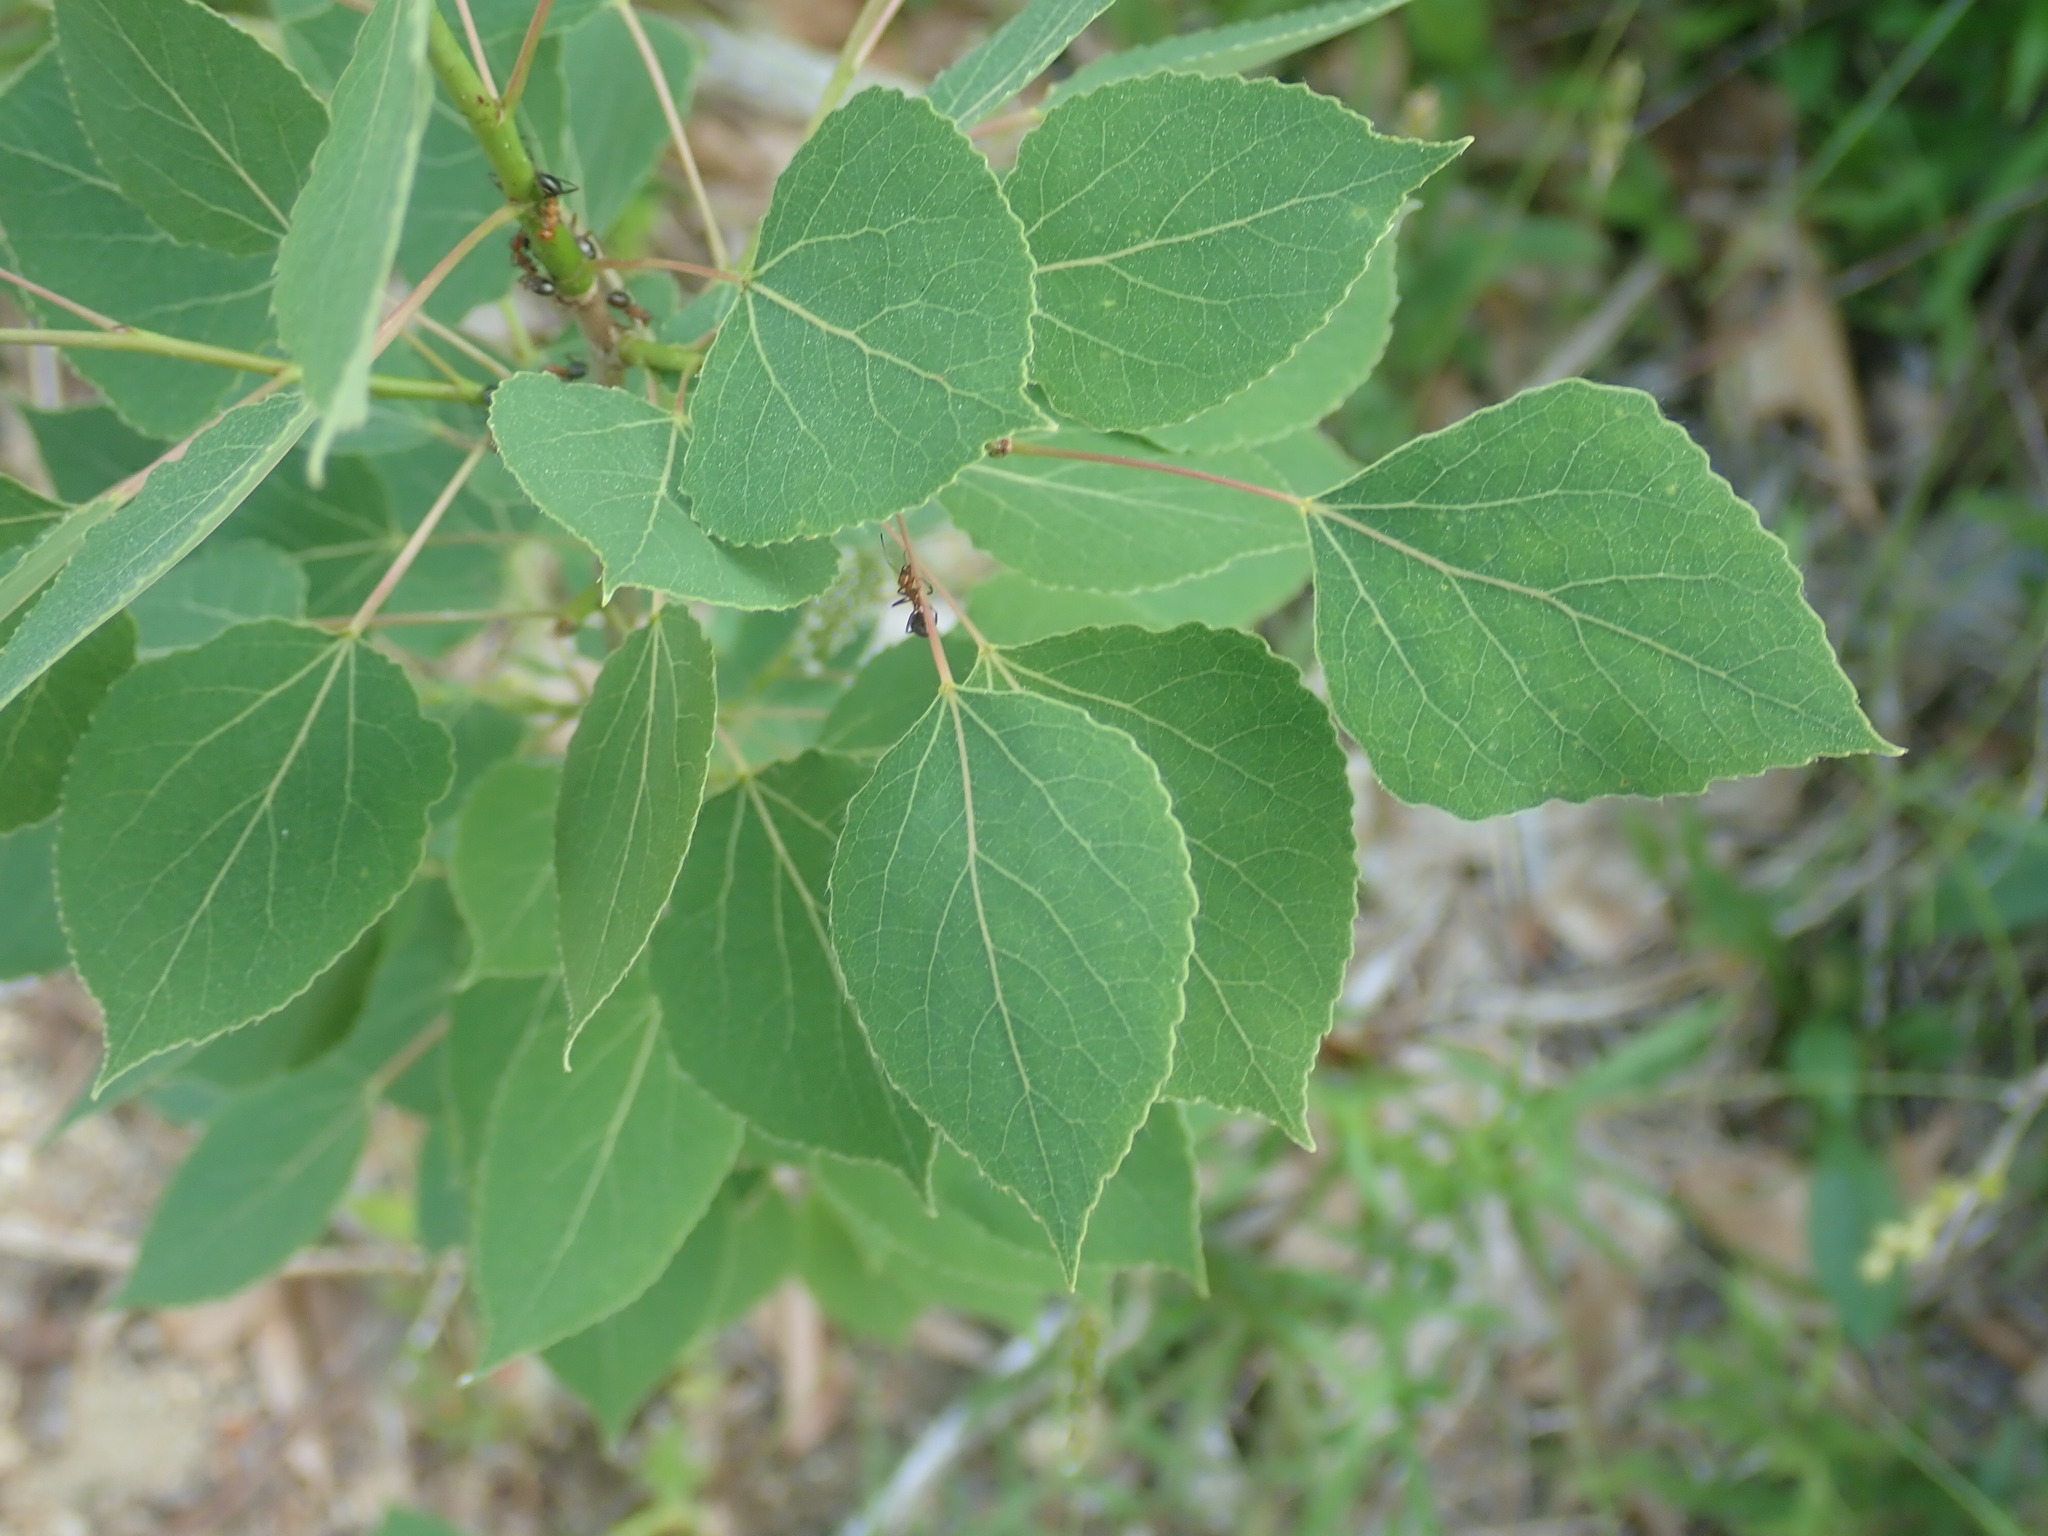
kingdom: Plantae
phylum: Tracheophyta
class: Magnoliopsida
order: Malpighiales
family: Salicaceae
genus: Populus
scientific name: Populus tremuloides
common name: Quaking aspen
